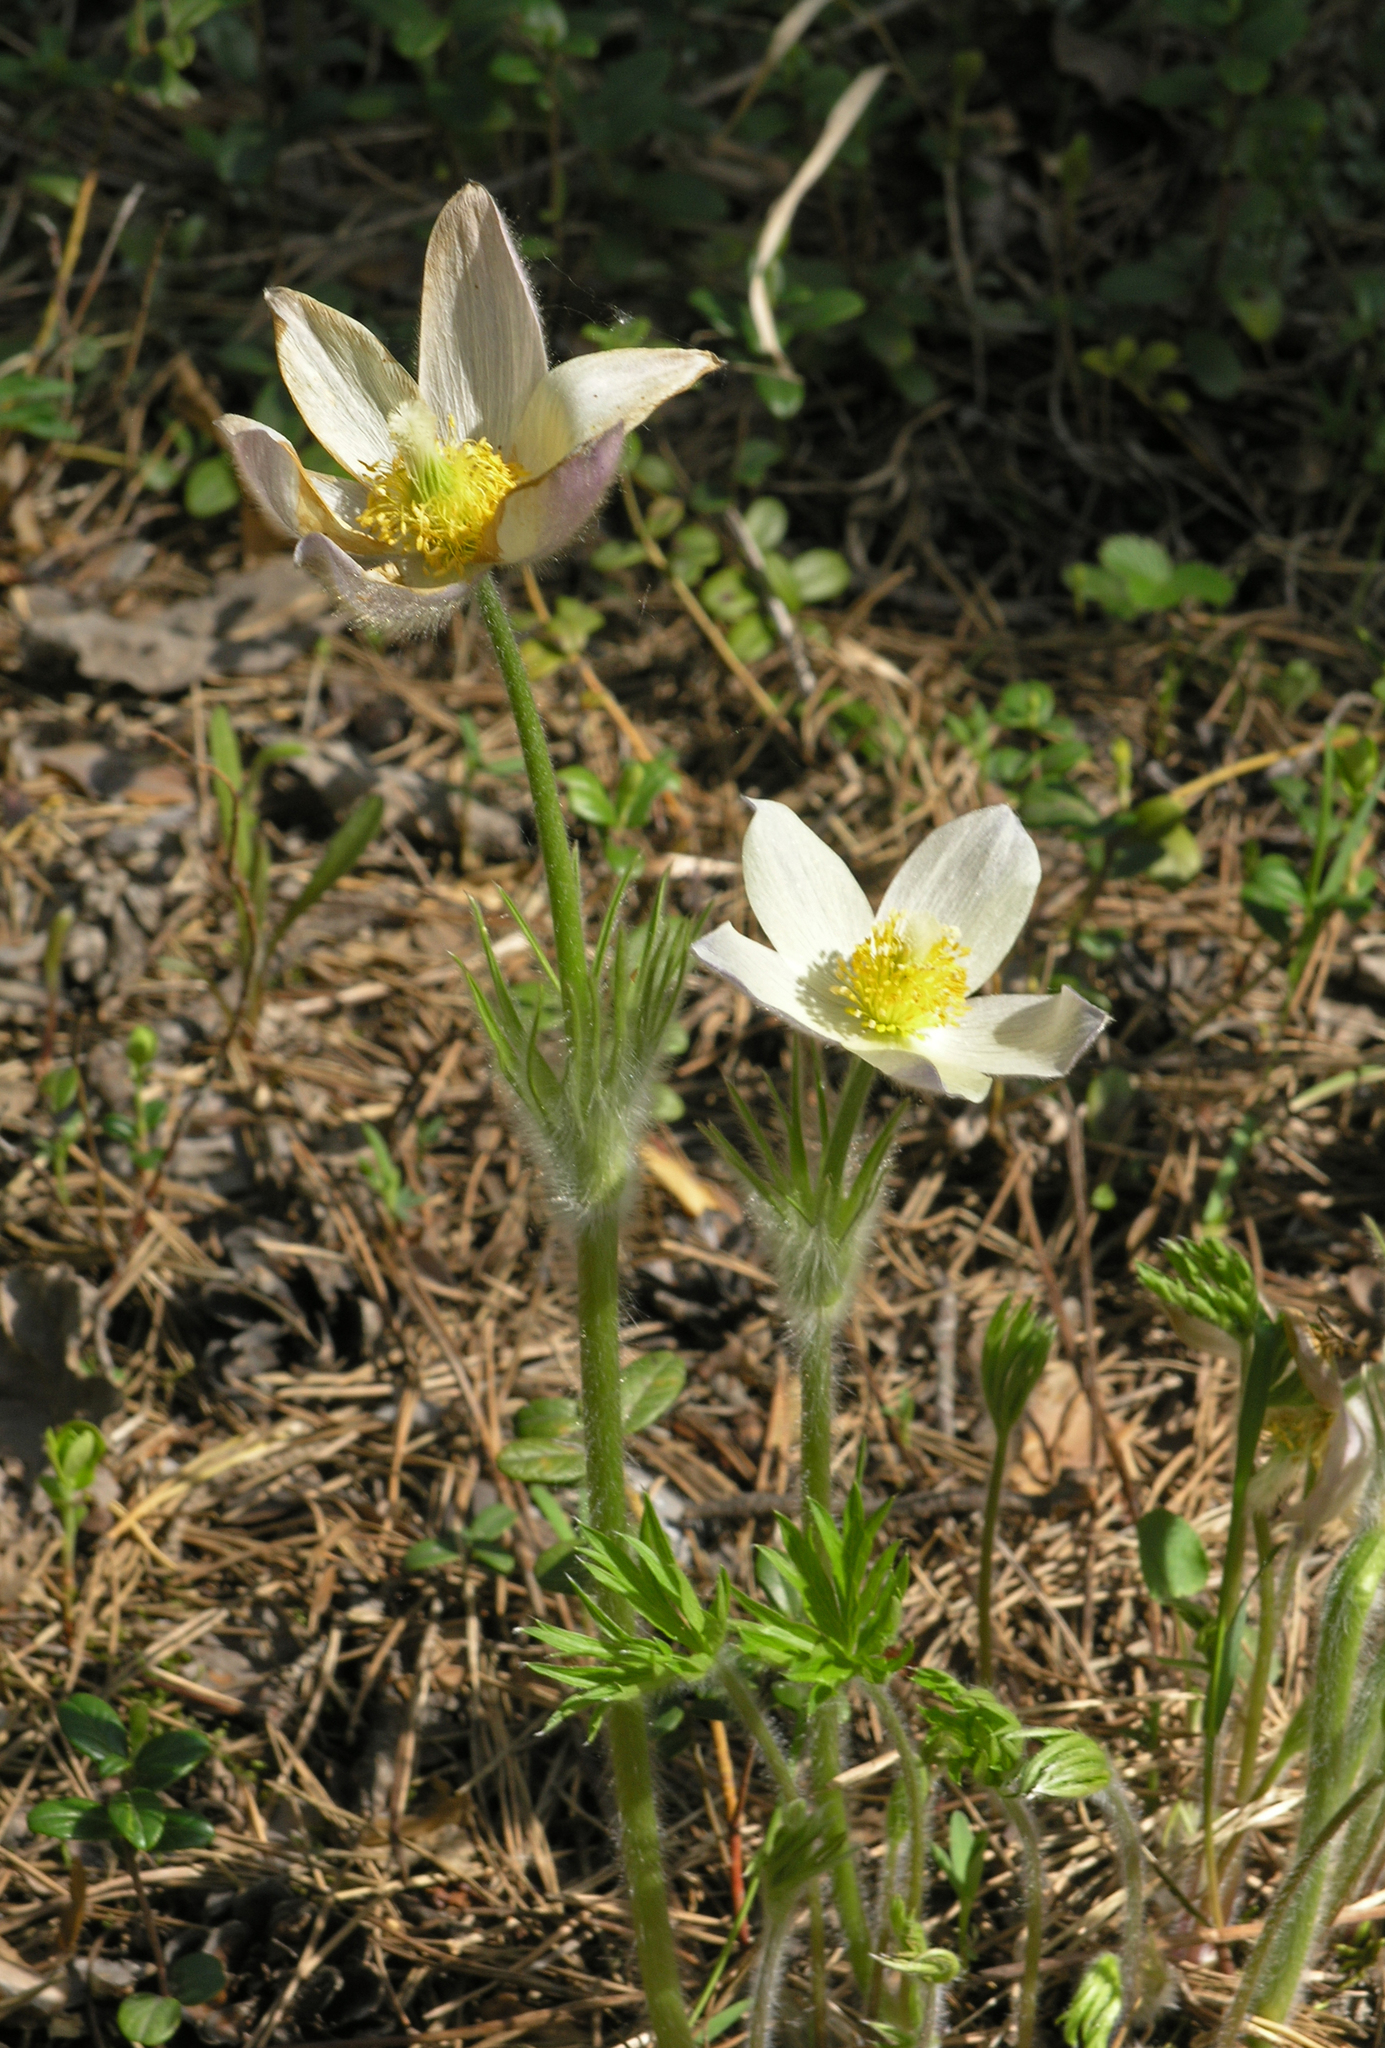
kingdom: Plantae
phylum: Tracheophyta
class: Magnoliopsida
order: Ranunculales
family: Ranunculaceae
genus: Pulsatilla
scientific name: Pulsatilla patens
